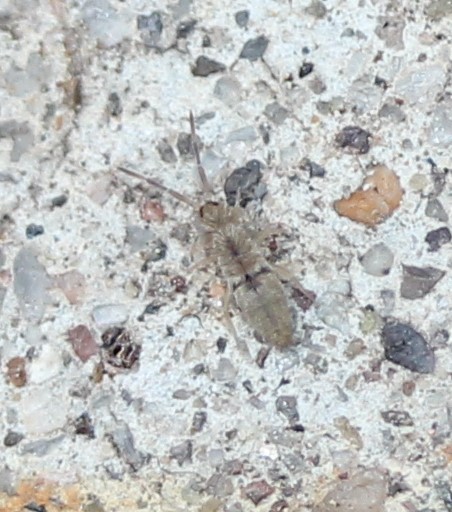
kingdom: Animalia
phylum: Arthropoda
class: Collembola
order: Entomobryomorpha
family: Entomobryidae
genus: Entomobrya
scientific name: Entomobrya unostrigata
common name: Springtail
